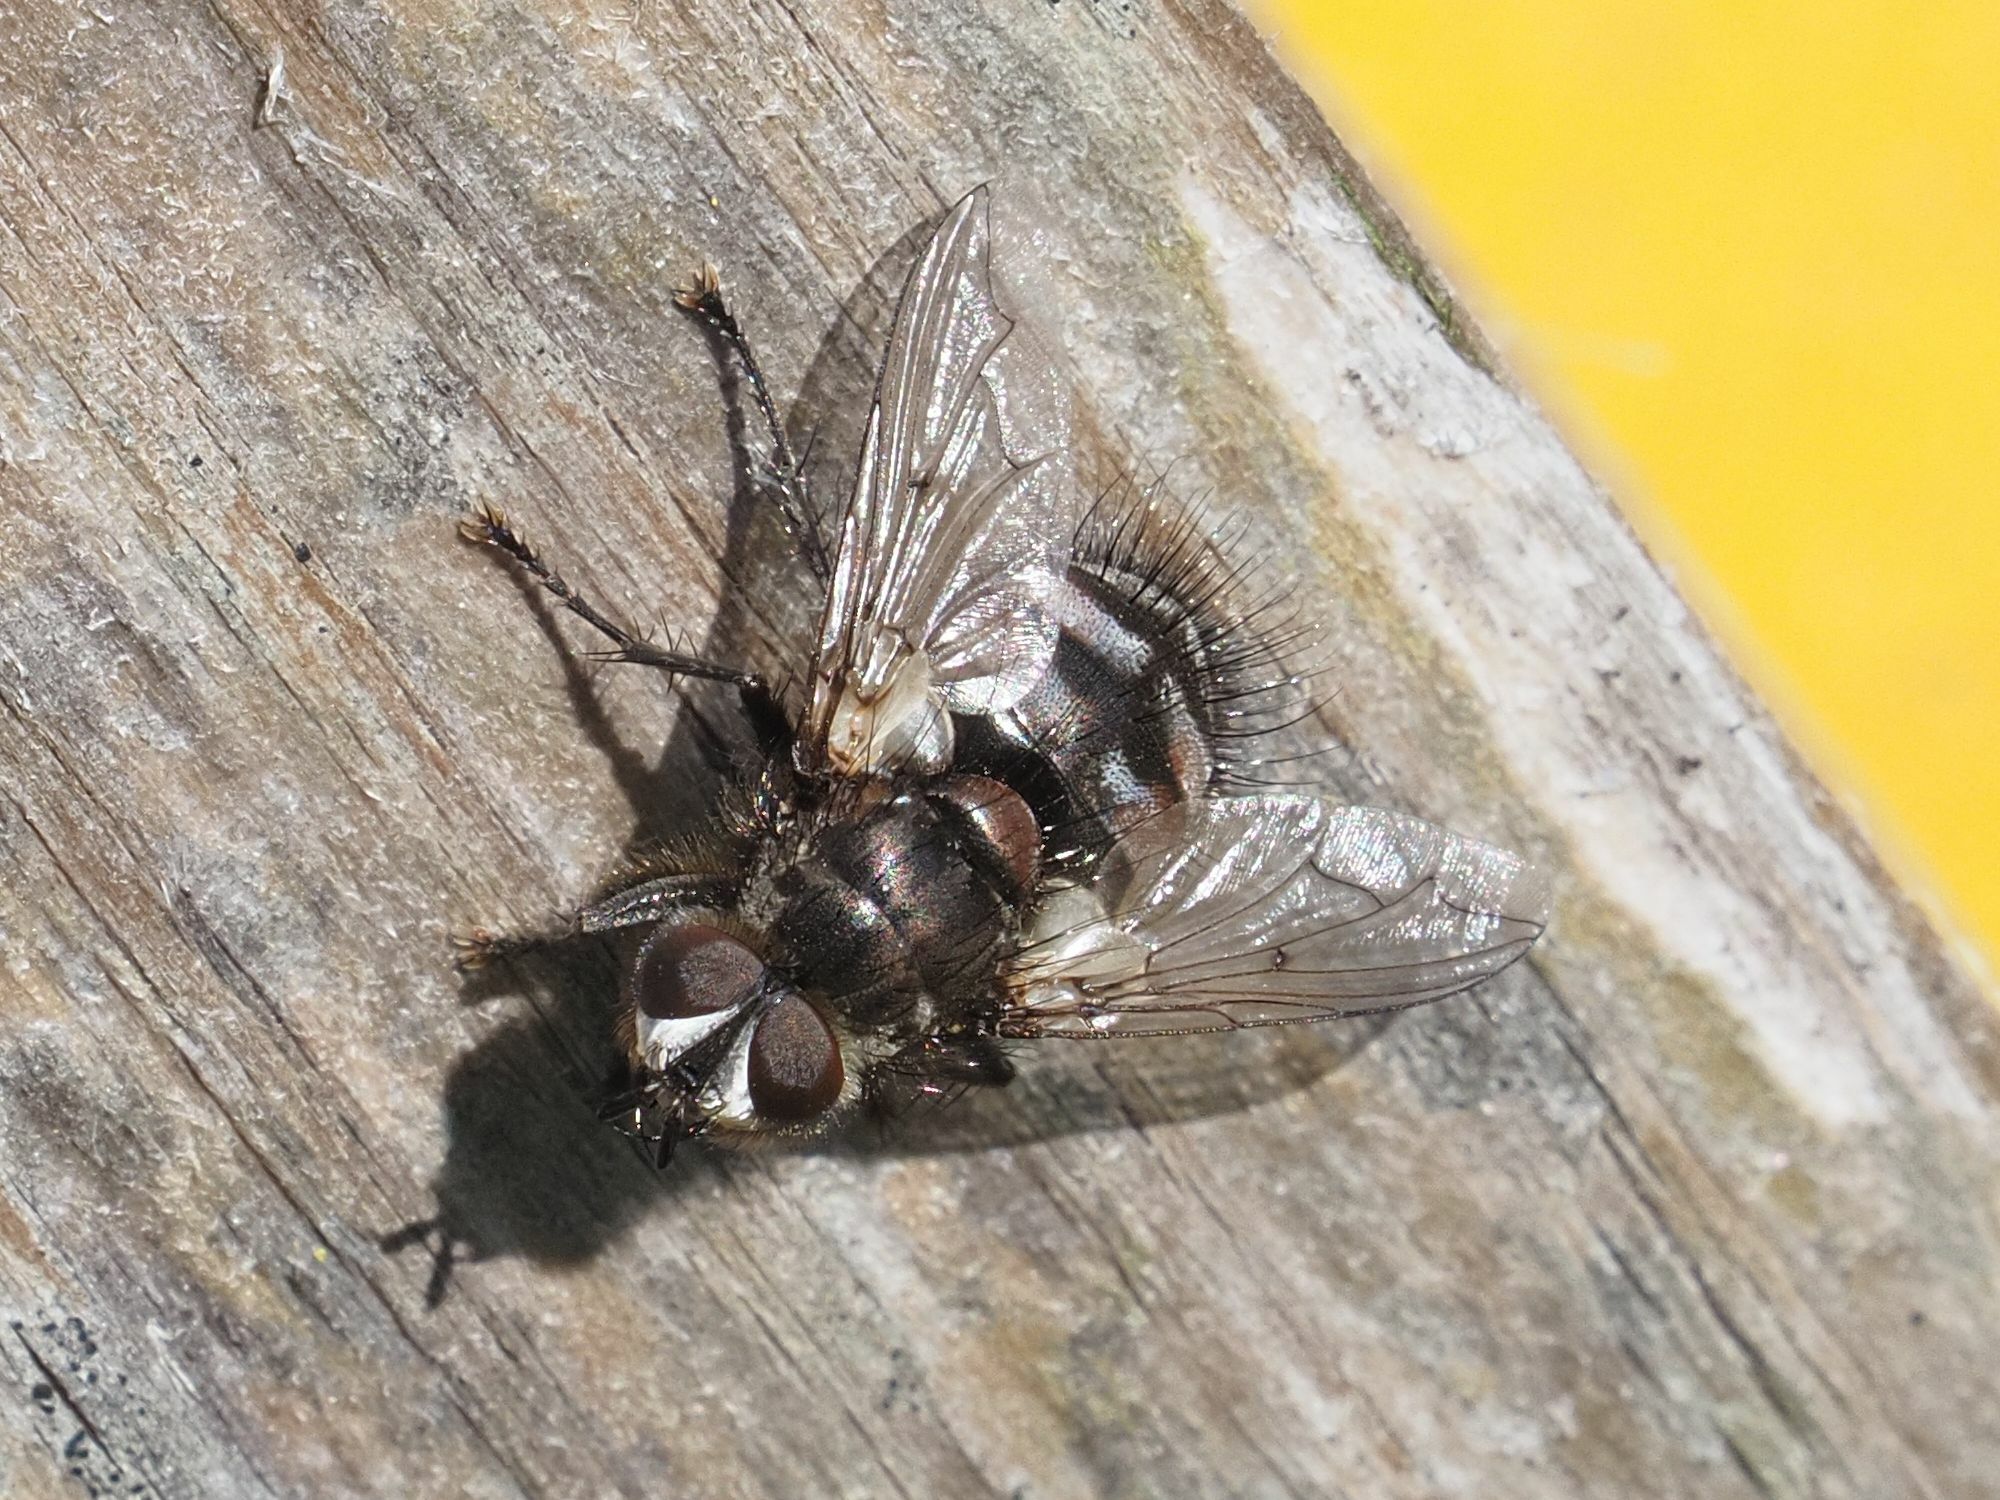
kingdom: Animalia
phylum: Arthropoda
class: Insecta
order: Diptera
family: Tachinidae
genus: Panzeria
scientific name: Panzeria puparum
